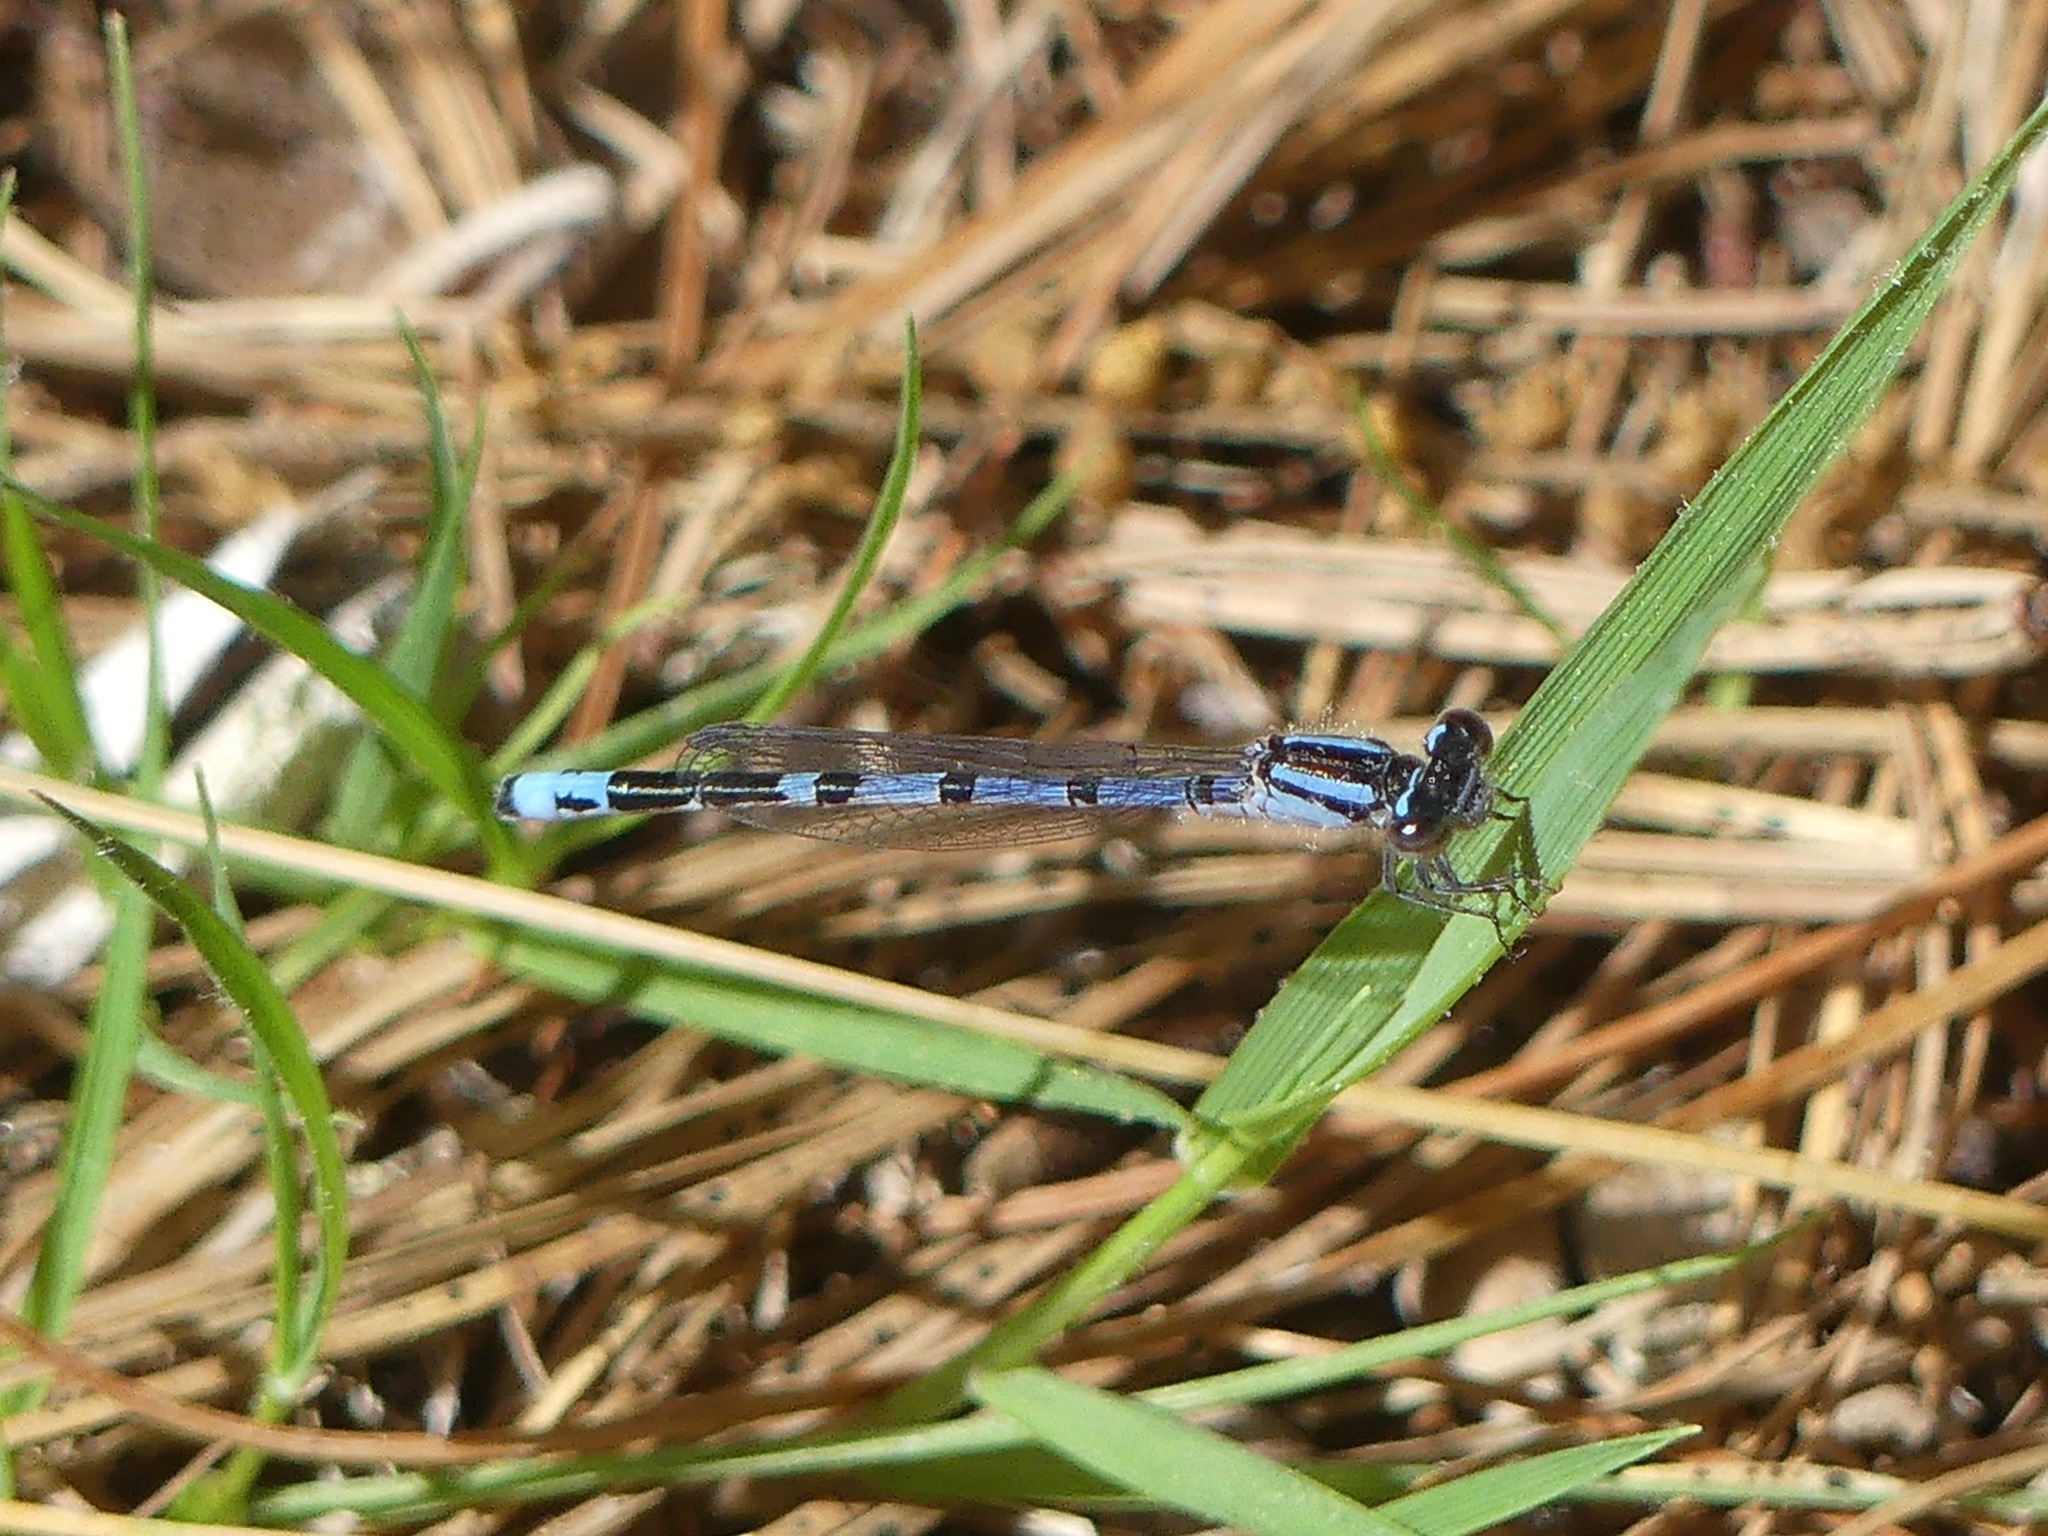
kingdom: Animalia
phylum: Arthropoda
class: Insecta
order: Odonata
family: Coenagrionidae
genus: Enallagma
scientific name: Enallagma laterale
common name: New england bluet
